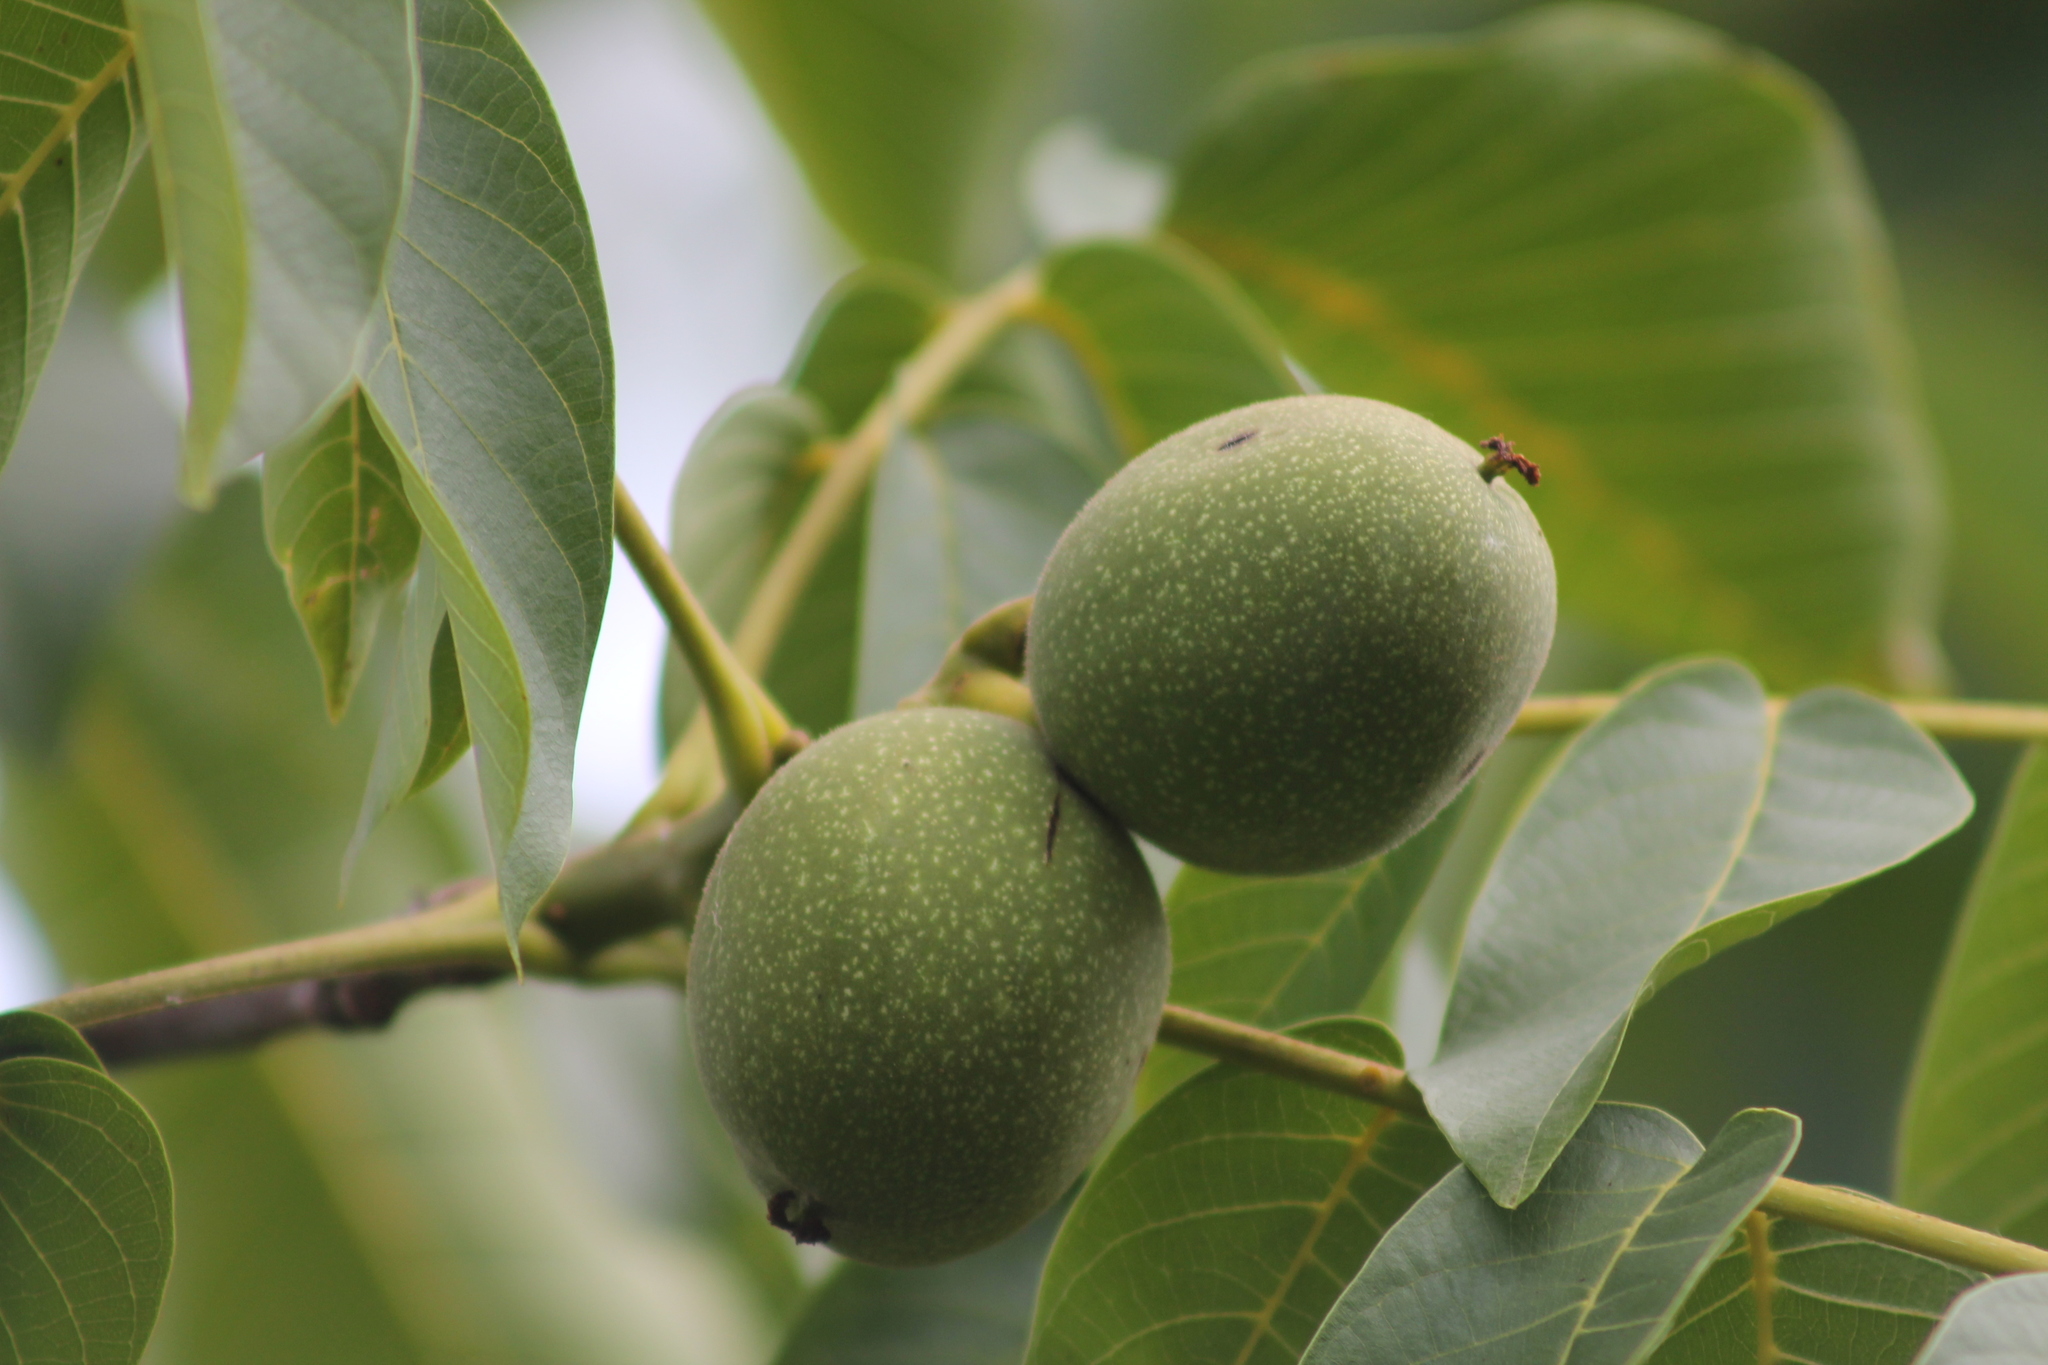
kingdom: Plantae
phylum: Tracheophyta
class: Magnoliopsida
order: Fagales
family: Juglandaceae
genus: Juglans
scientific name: Juglans regia
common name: Walnut
